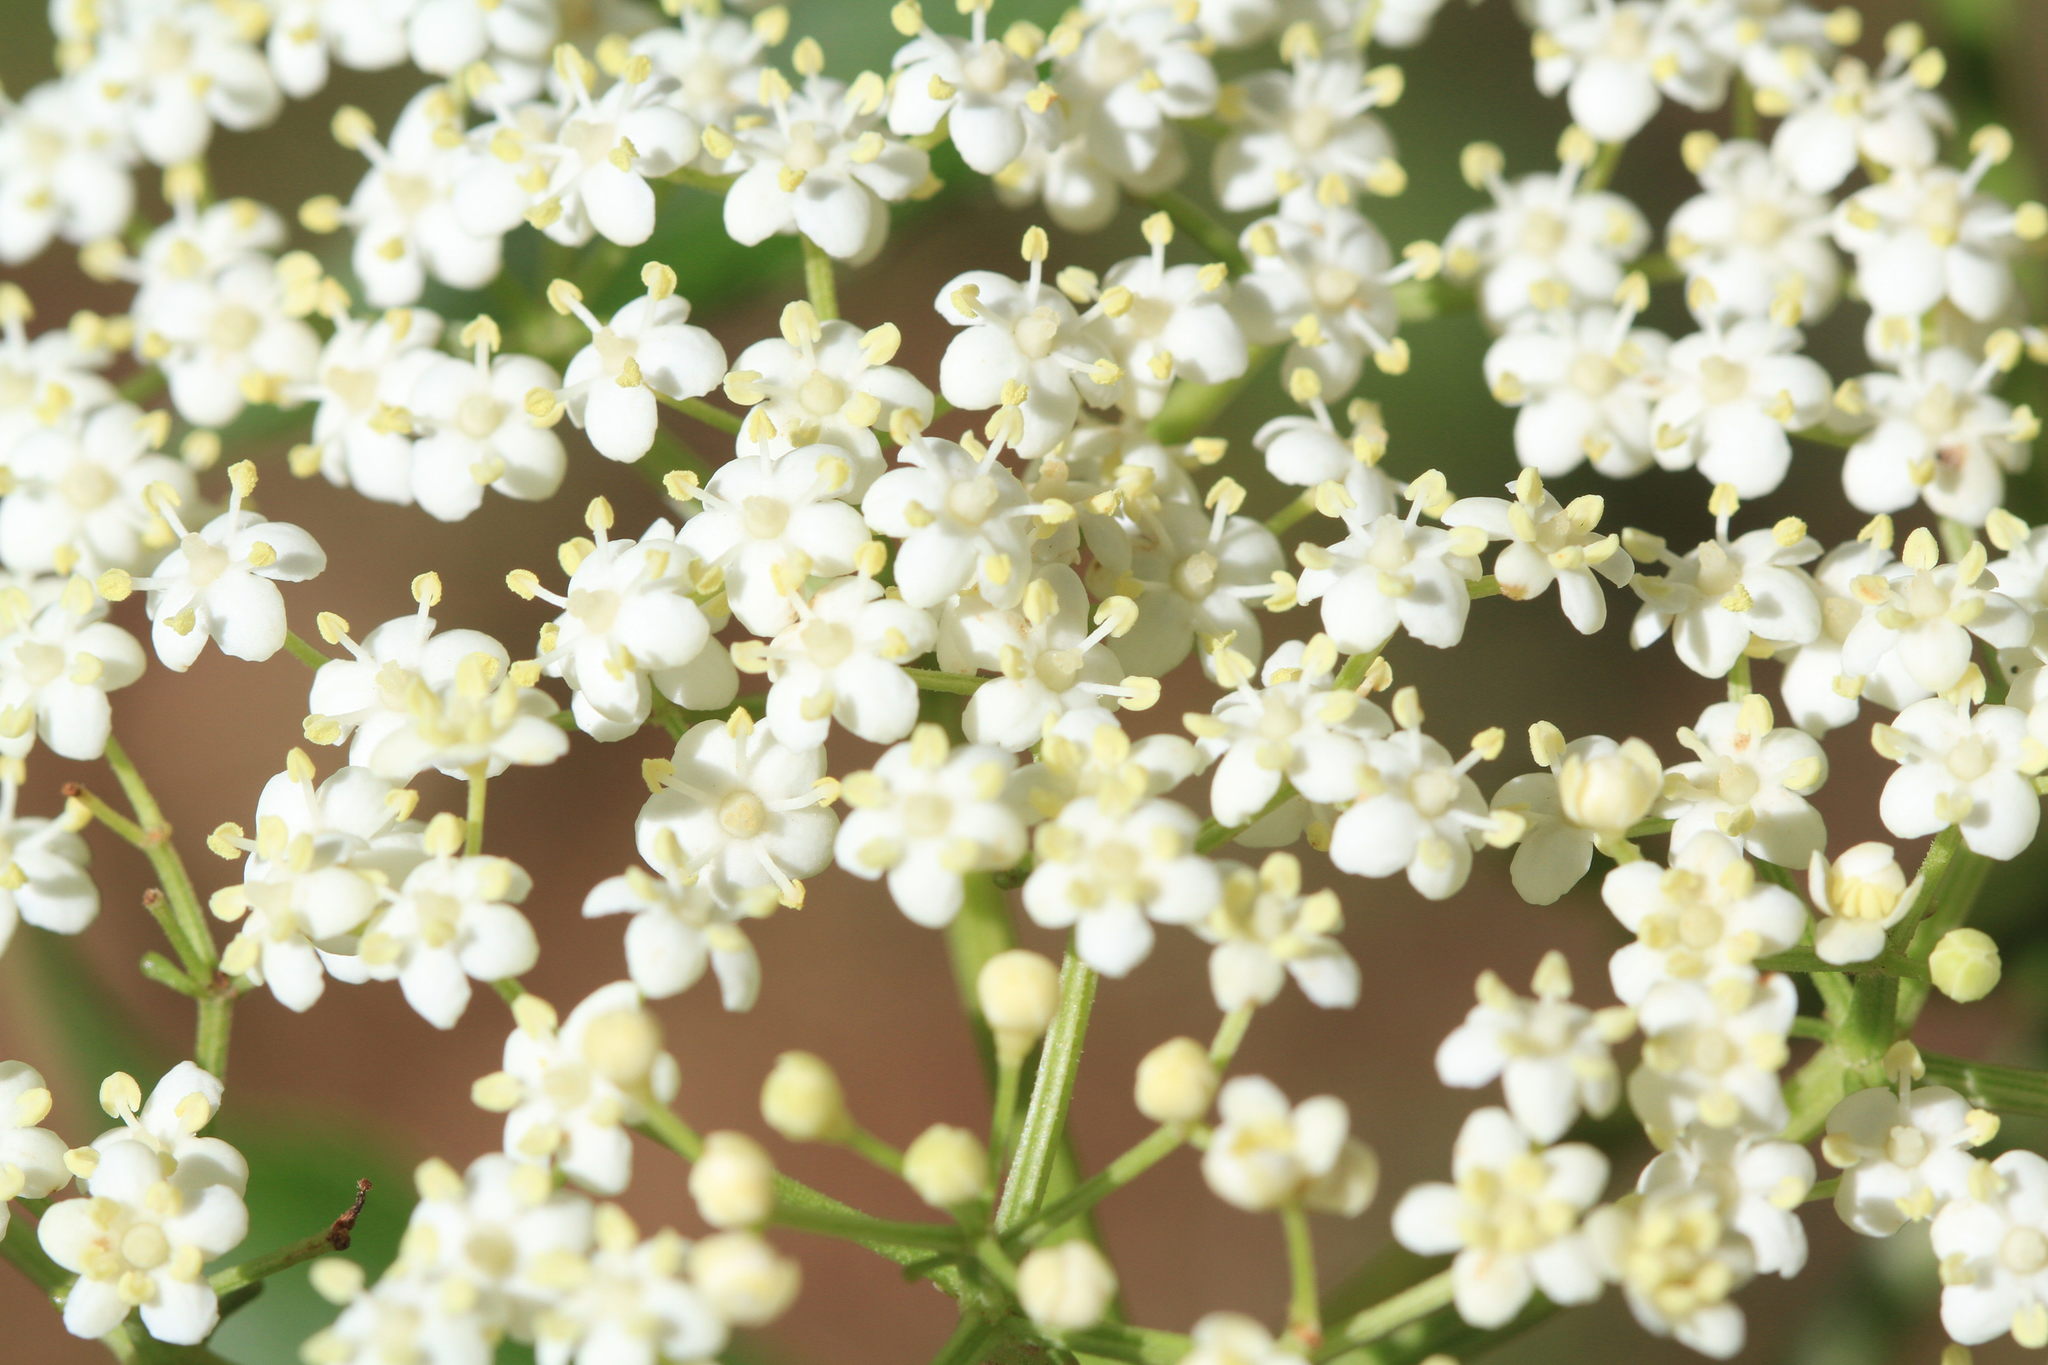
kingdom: Plantae
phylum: Tracheophyta
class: Magnoliopsida
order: Dipsacales
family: Viburnaceae
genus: Sambucus
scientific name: Sambucus canadensis
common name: American elder
